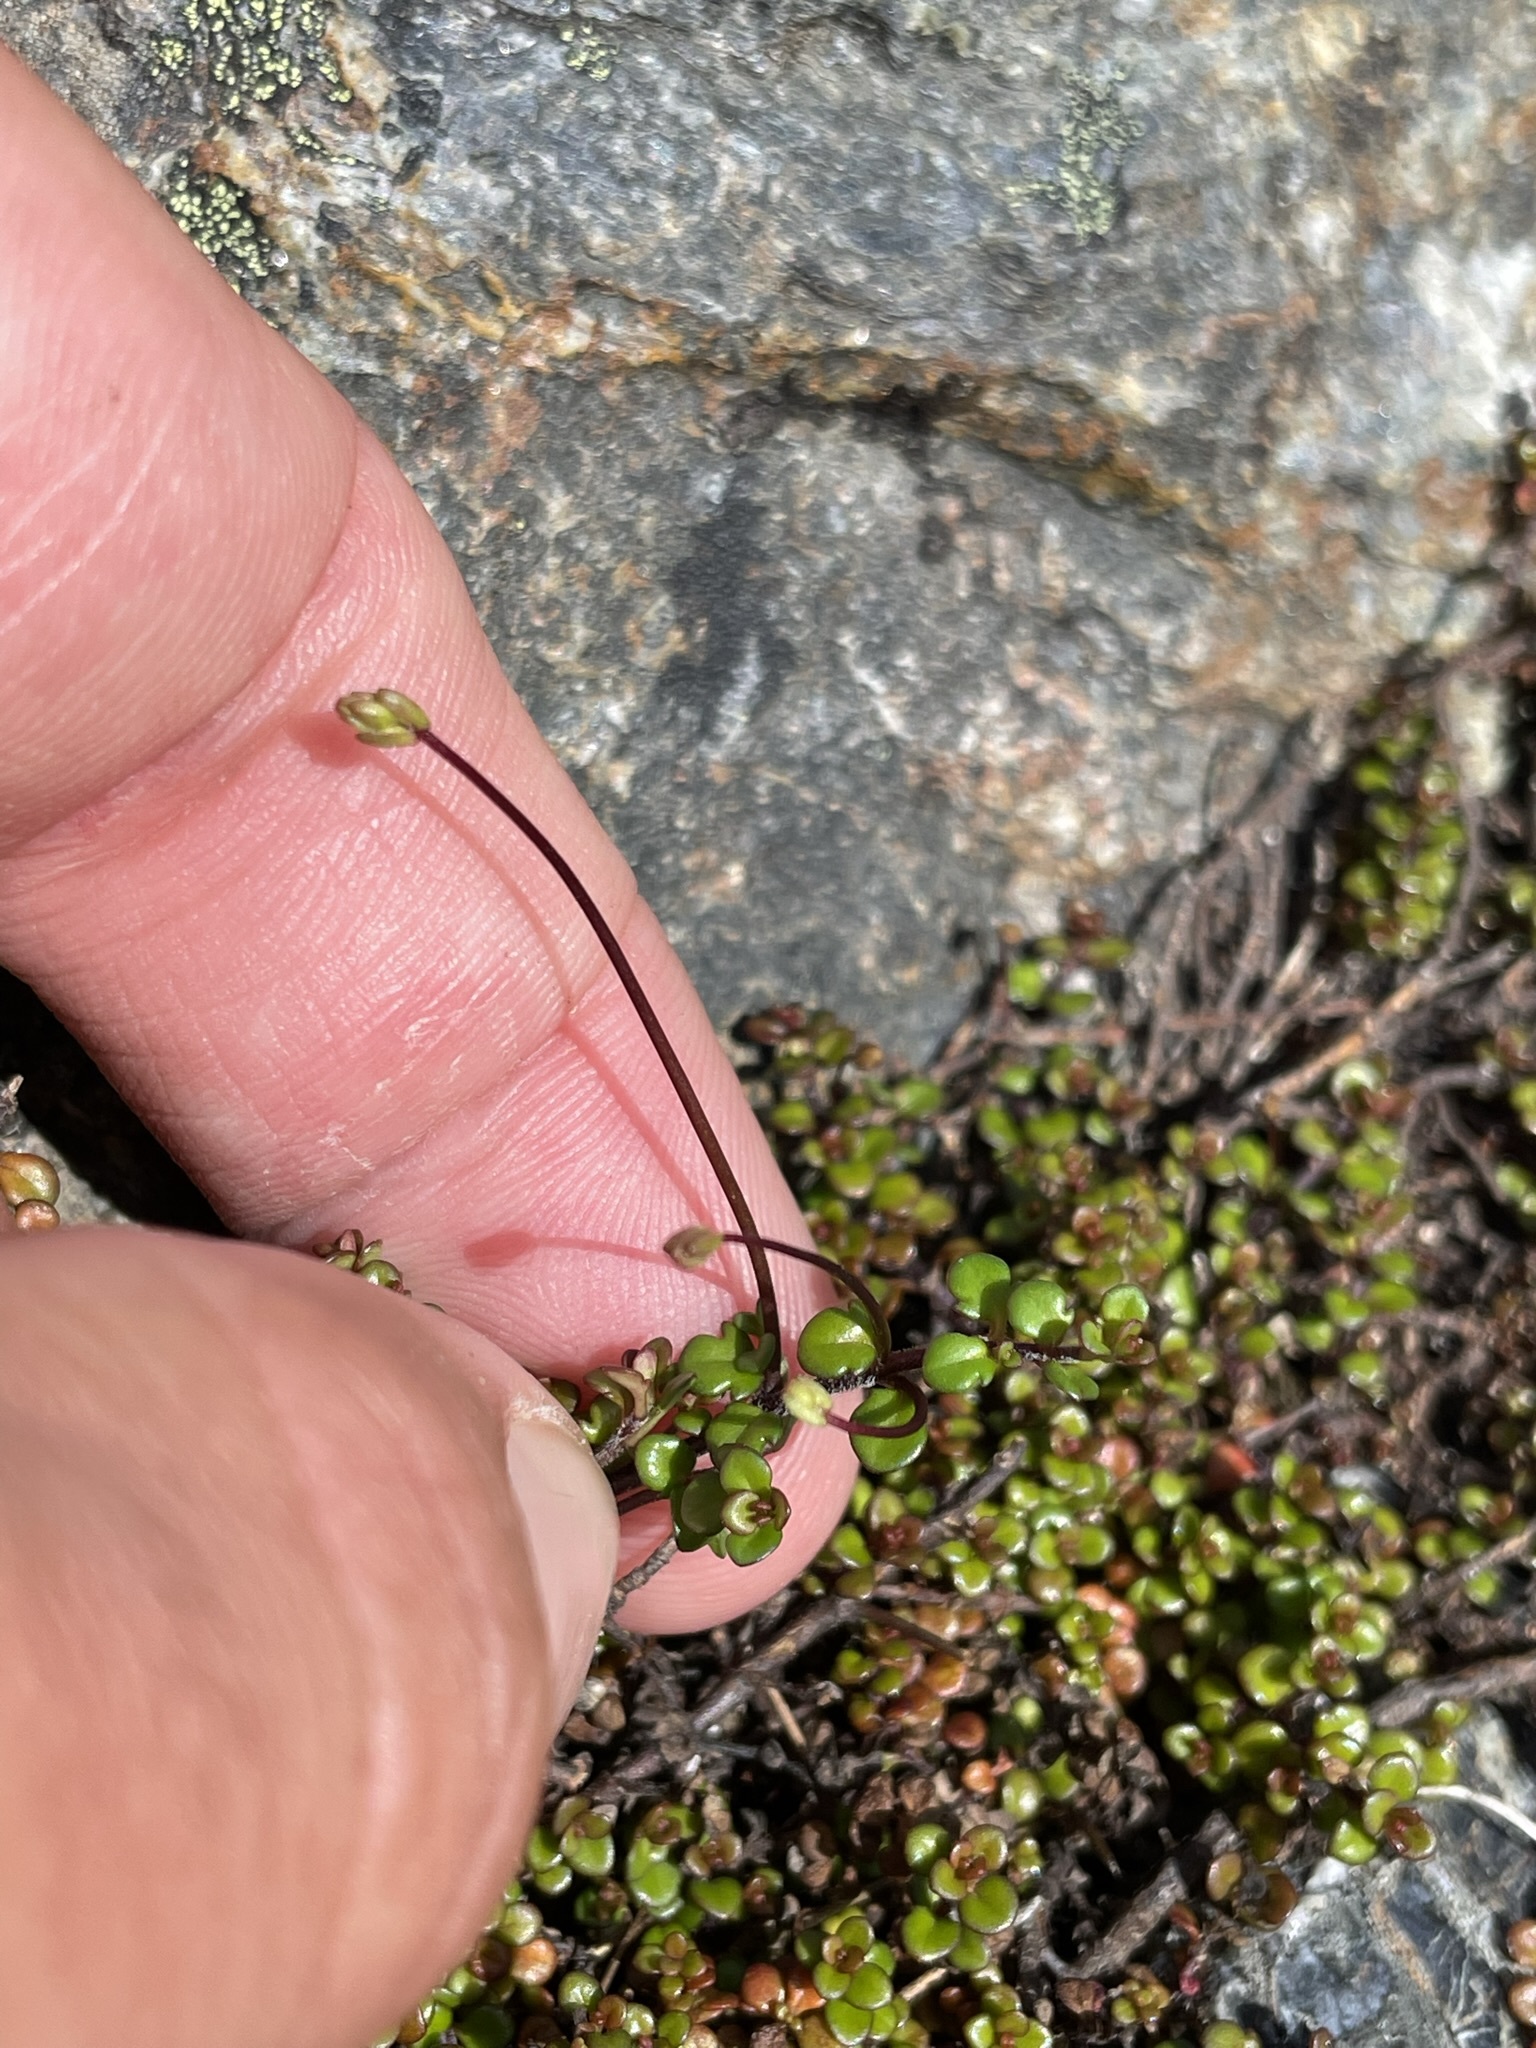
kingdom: Plantae
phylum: Tracheophyta
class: Magnoliopsida
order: Lamiales
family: Plantaginaceae
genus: Veronica
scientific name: Veronica decora
